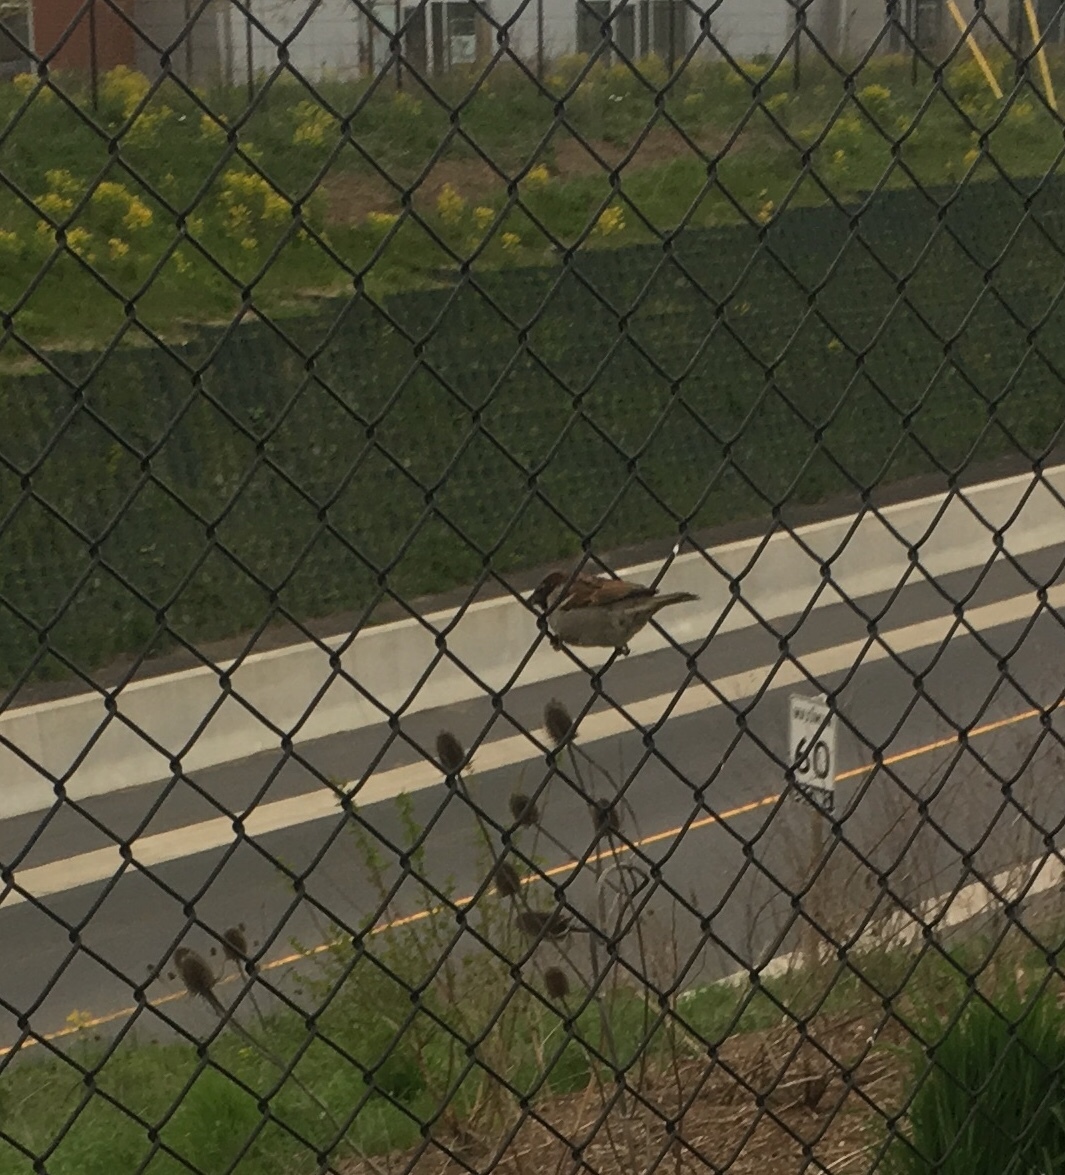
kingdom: Animalia
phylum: Chordata
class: Aves
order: Passeriformes
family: Passeridae
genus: Passer
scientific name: Passer domesticus
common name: House sparrow
